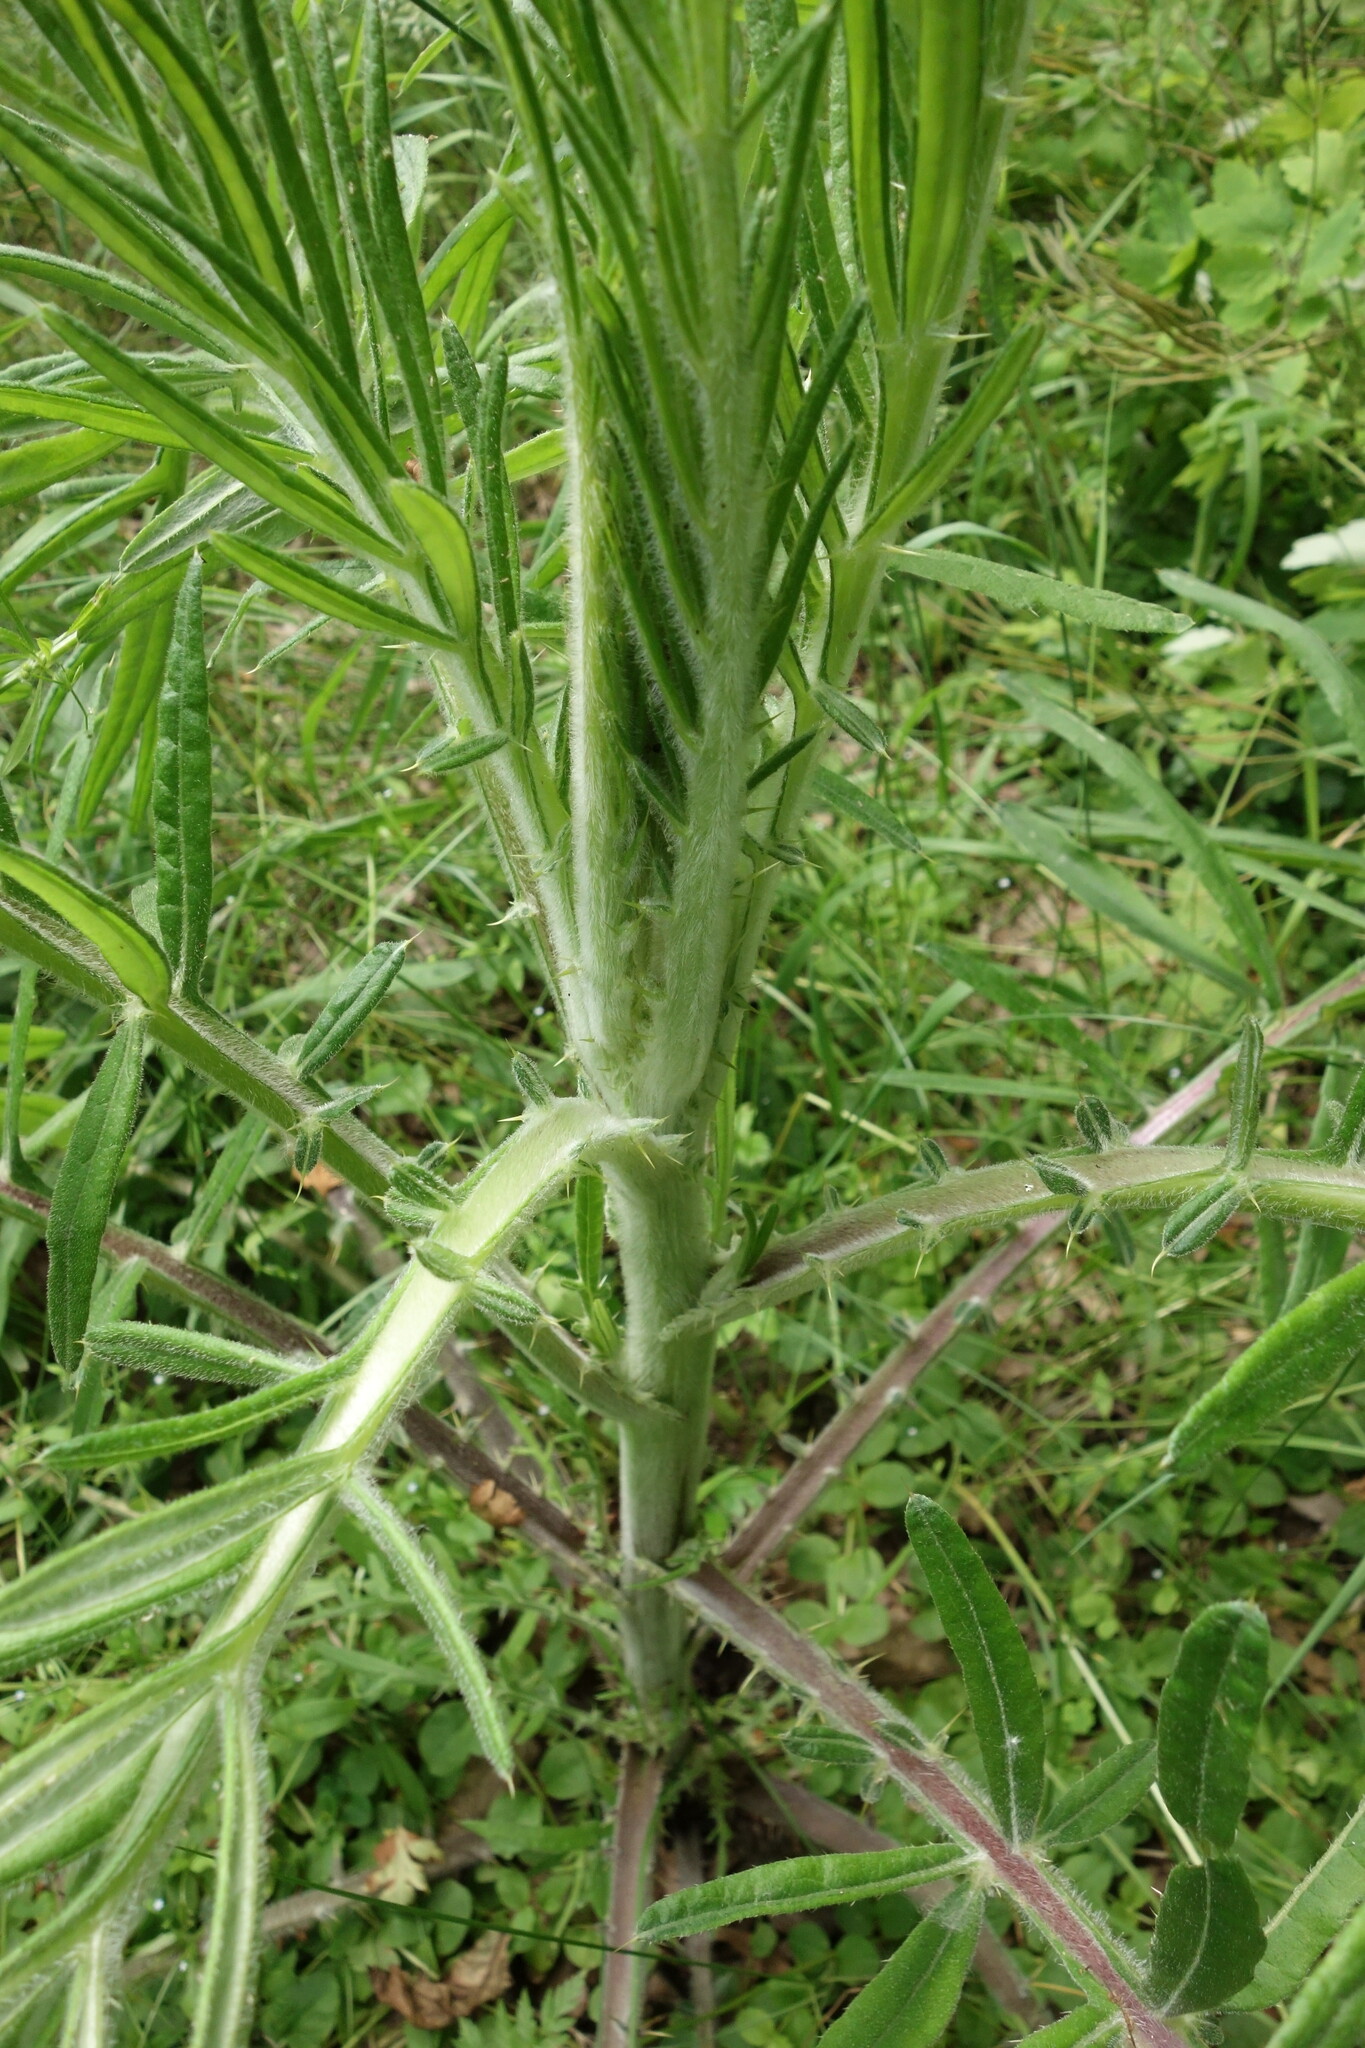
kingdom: Plantae
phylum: Tracheophyta
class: Magnoliopsida
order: Asterales
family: Asteraceae
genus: Lophiolepis
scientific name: Lophiolepis decussata
